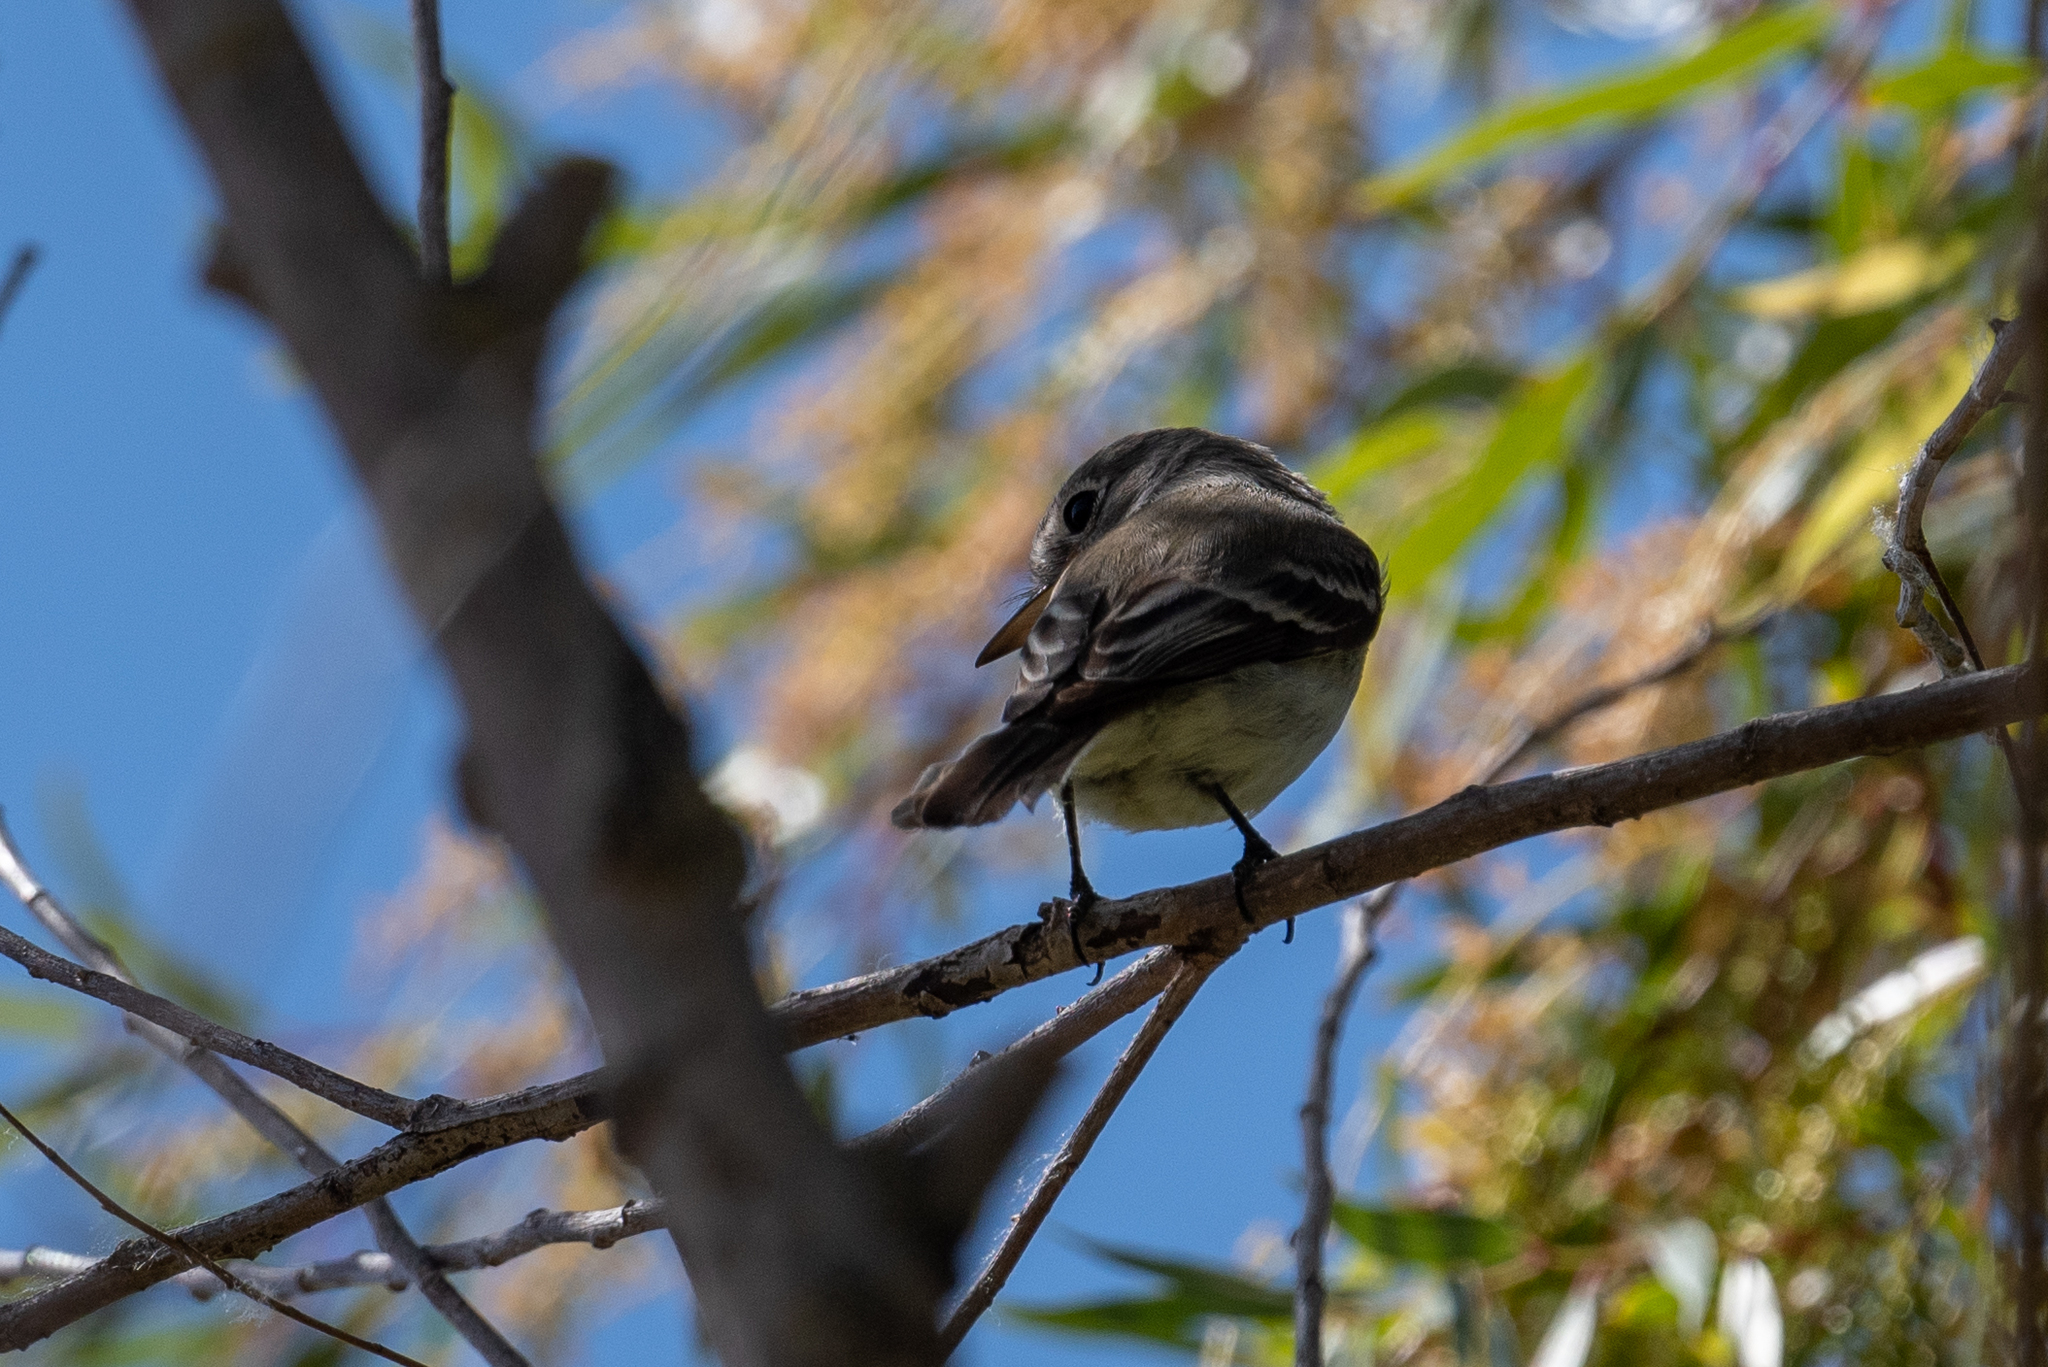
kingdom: Animalia
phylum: Chordata
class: Aves
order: Passeriformes
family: Tyrannidae
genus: Empidonax
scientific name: Empidonax wrightii
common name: Gray flycatcher
